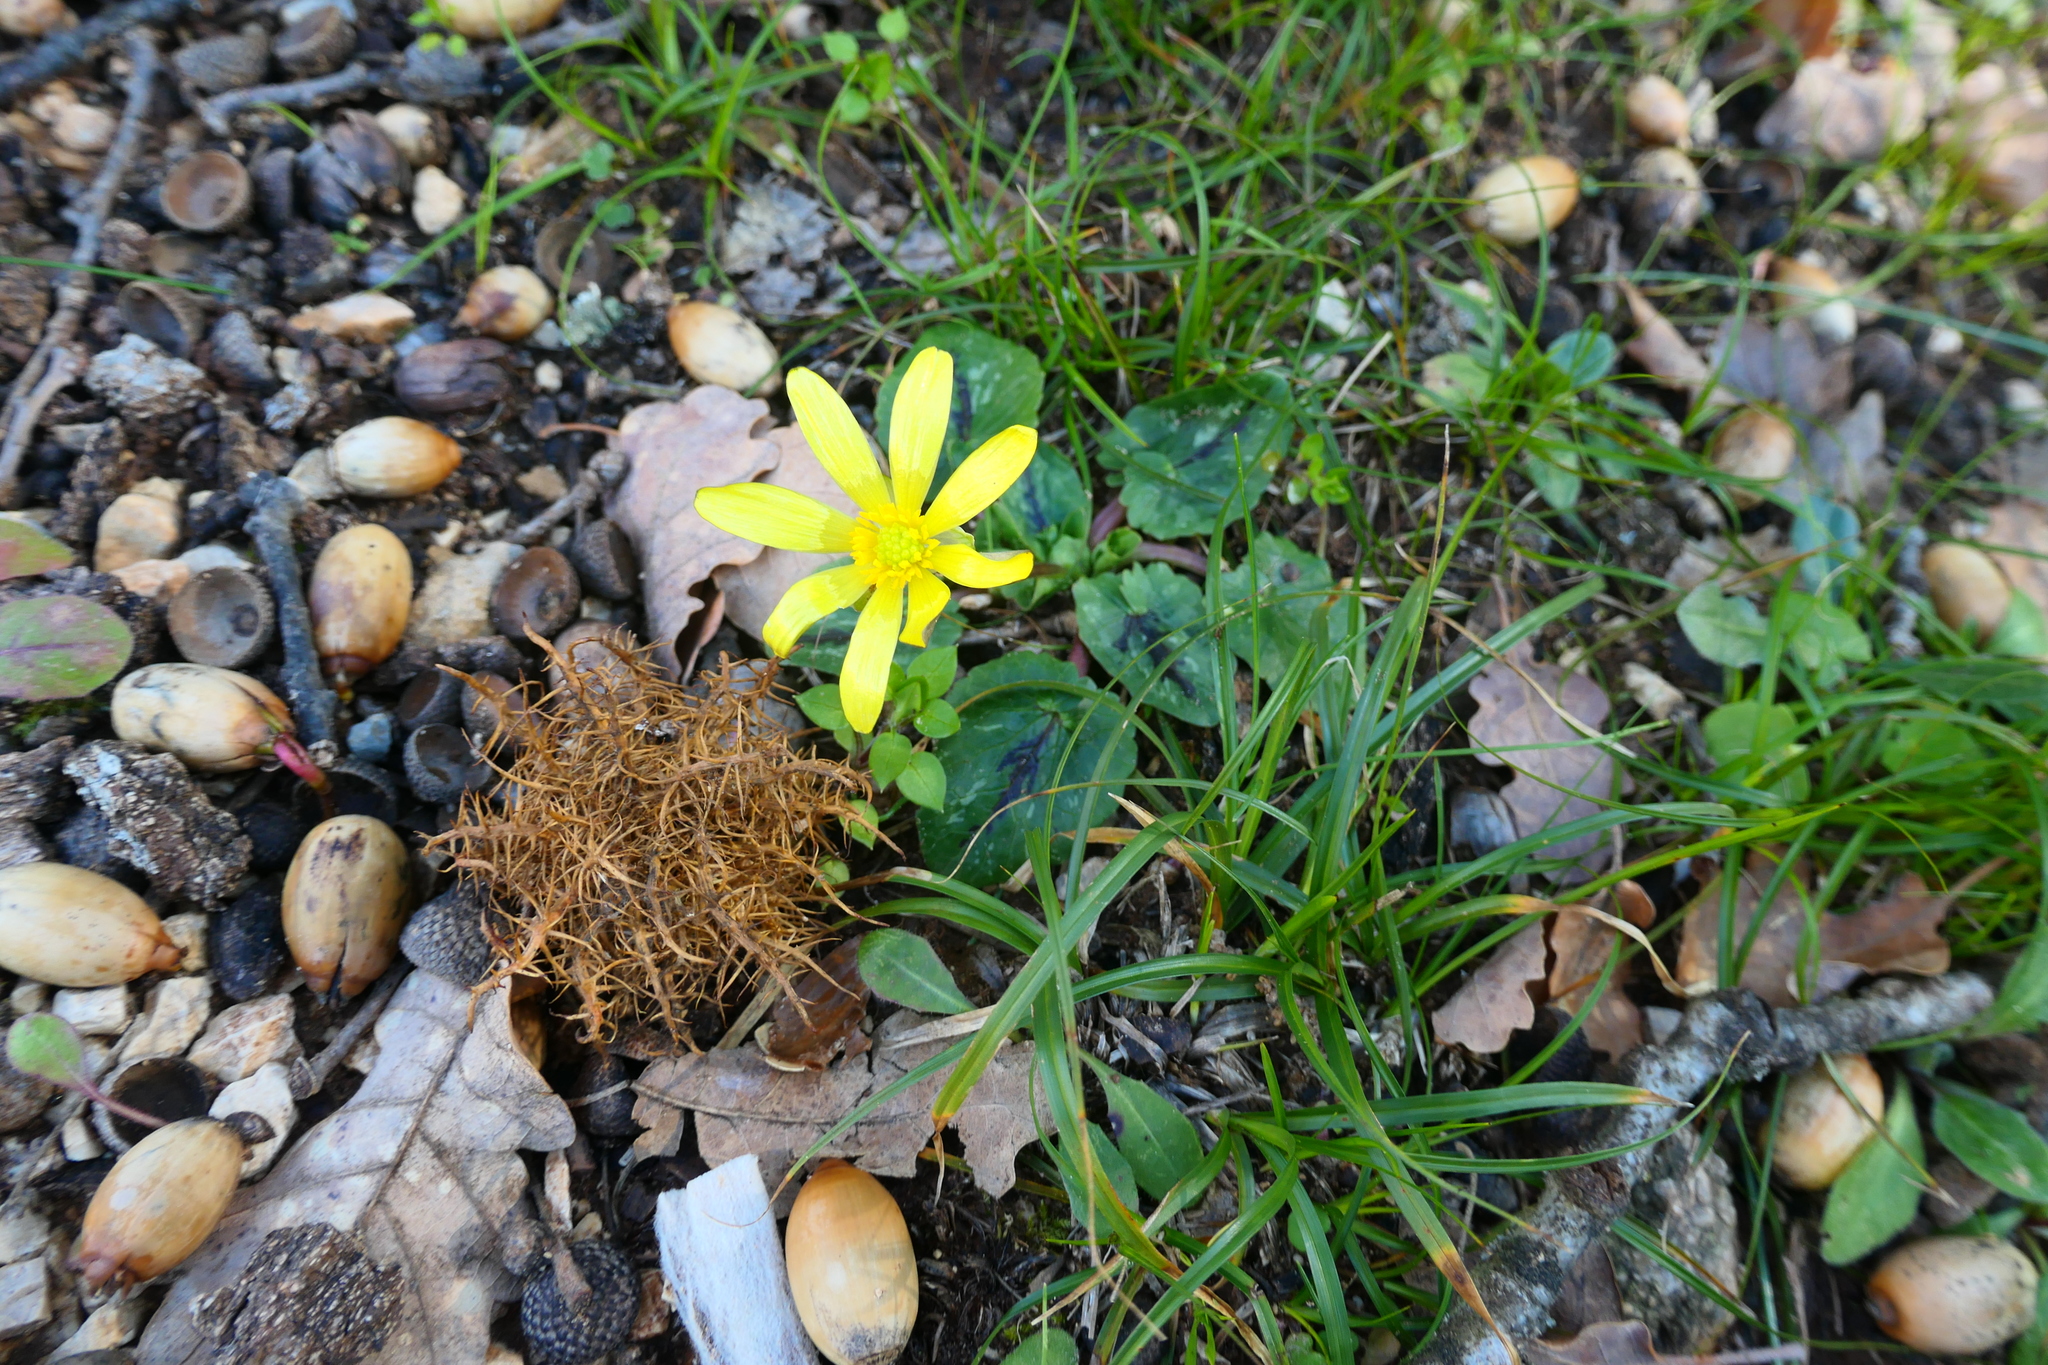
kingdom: Plantae
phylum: Tracheophyta
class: Magnoliopsida
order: Ranunculales
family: Ranunculaceae
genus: Ficaria
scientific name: Ficaria verna
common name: Lesser celandine
